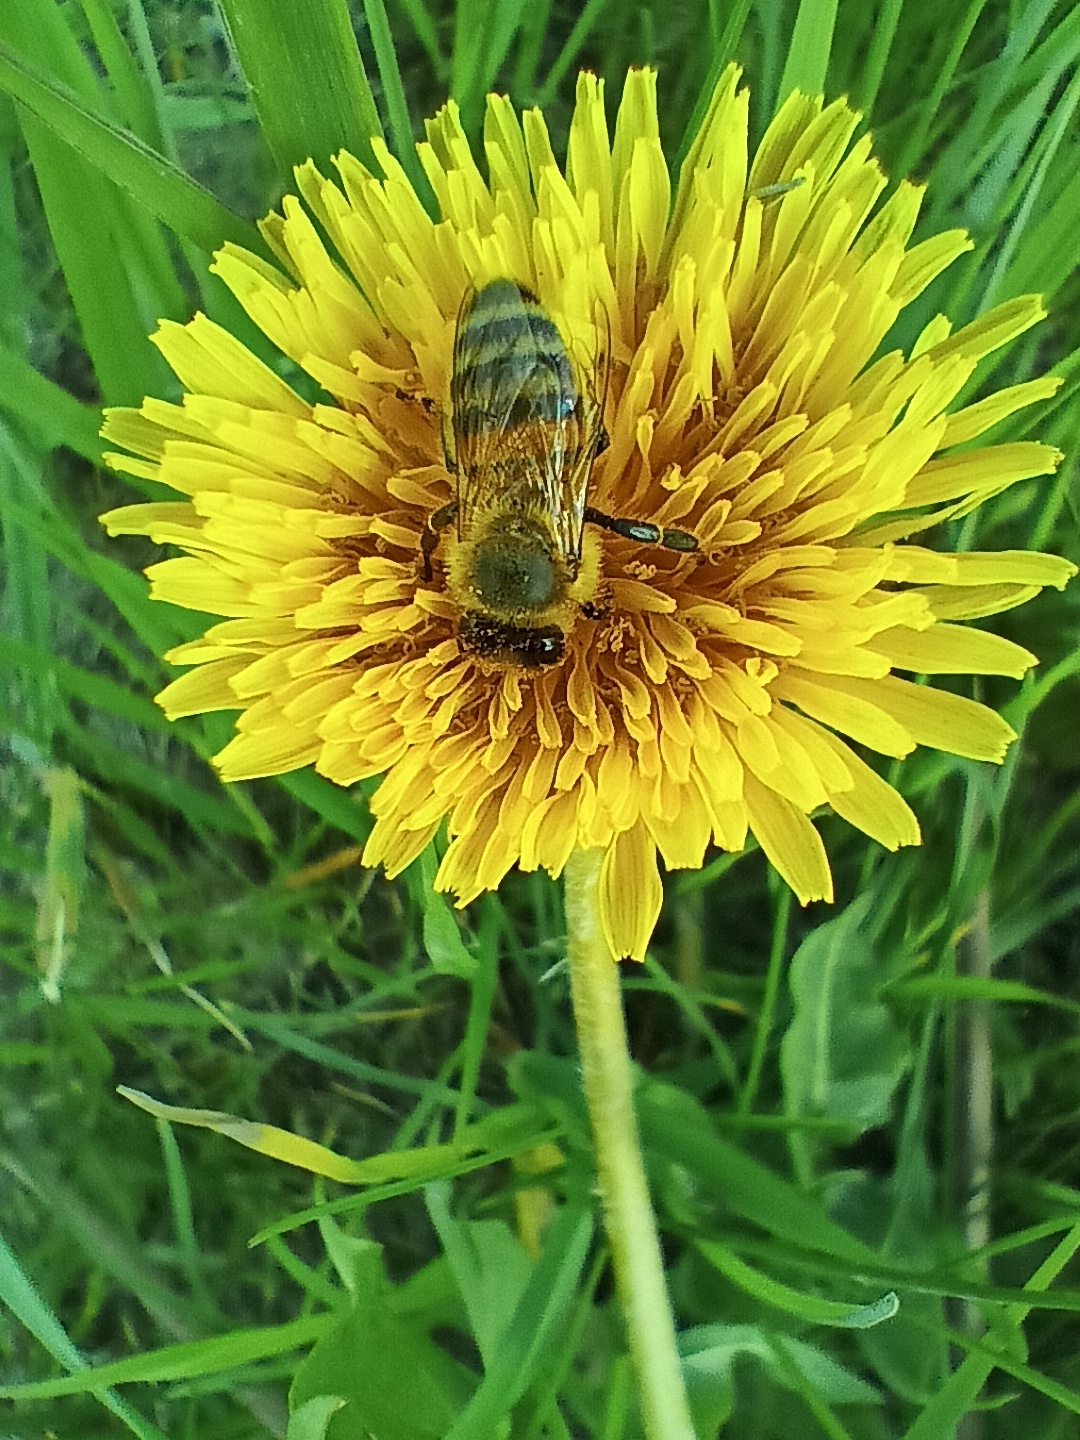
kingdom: Animalia
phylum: Arthropoda
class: Insecta
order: Hymenoptera
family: Apidae
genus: Apis
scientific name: Apis mellifera
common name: Honey bee
